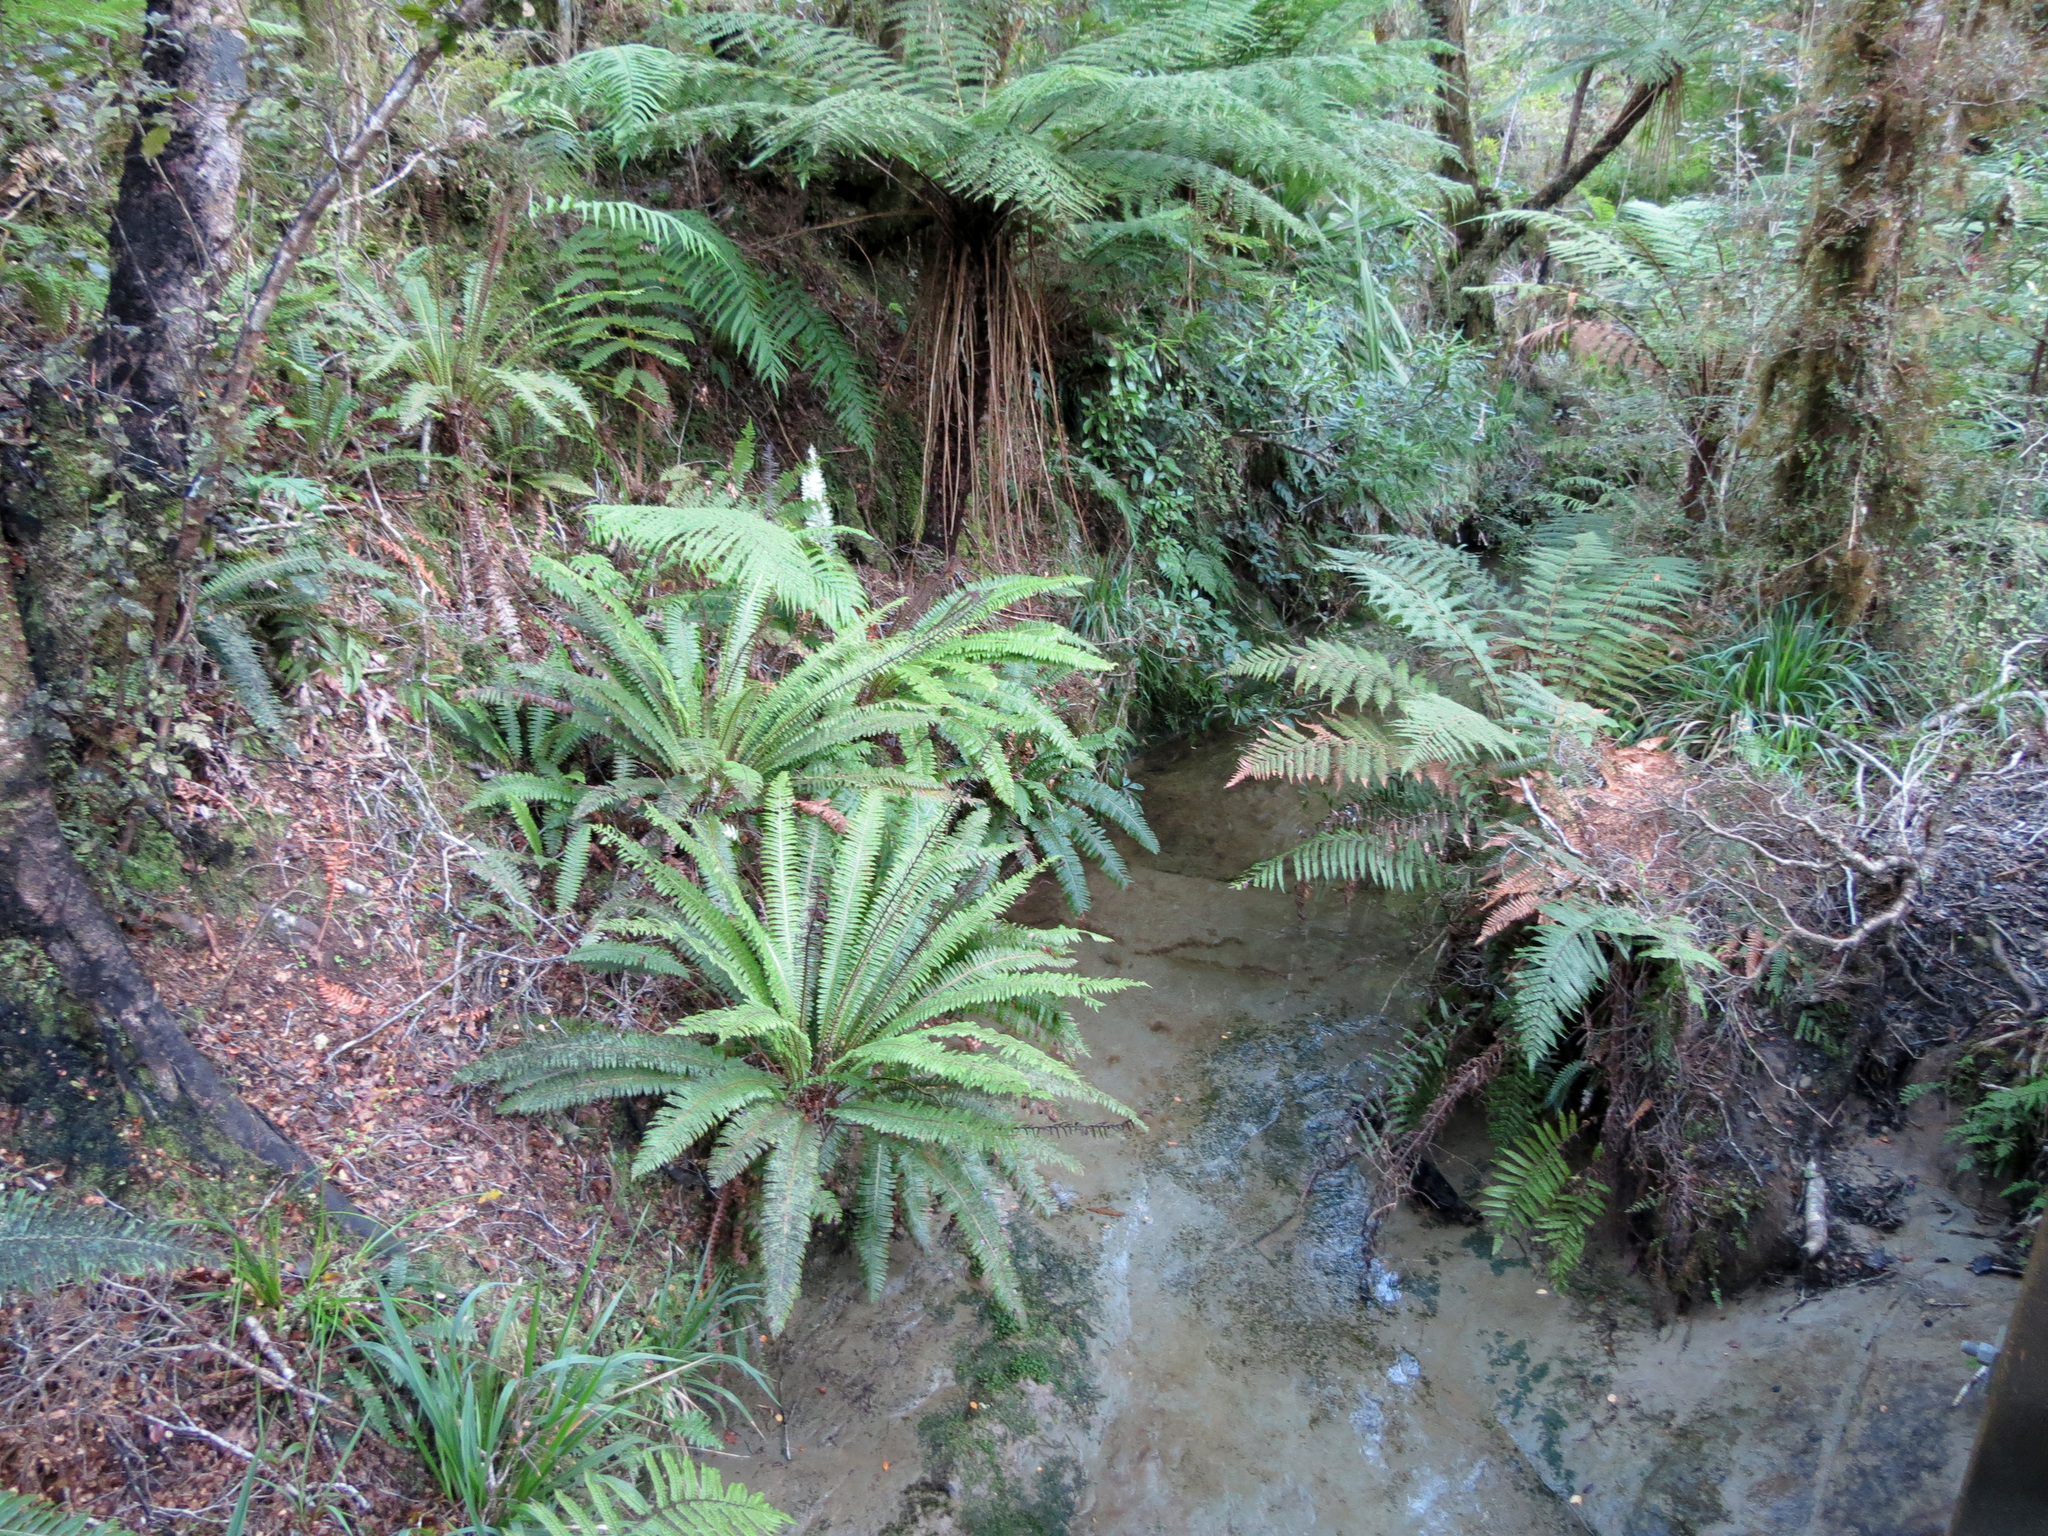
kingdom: Plantae
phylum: Tracheophyta
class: Polypodiopsida
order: Polypodiales
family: Blechnaceae
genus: Lomaria
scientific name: Lomaria discolor
